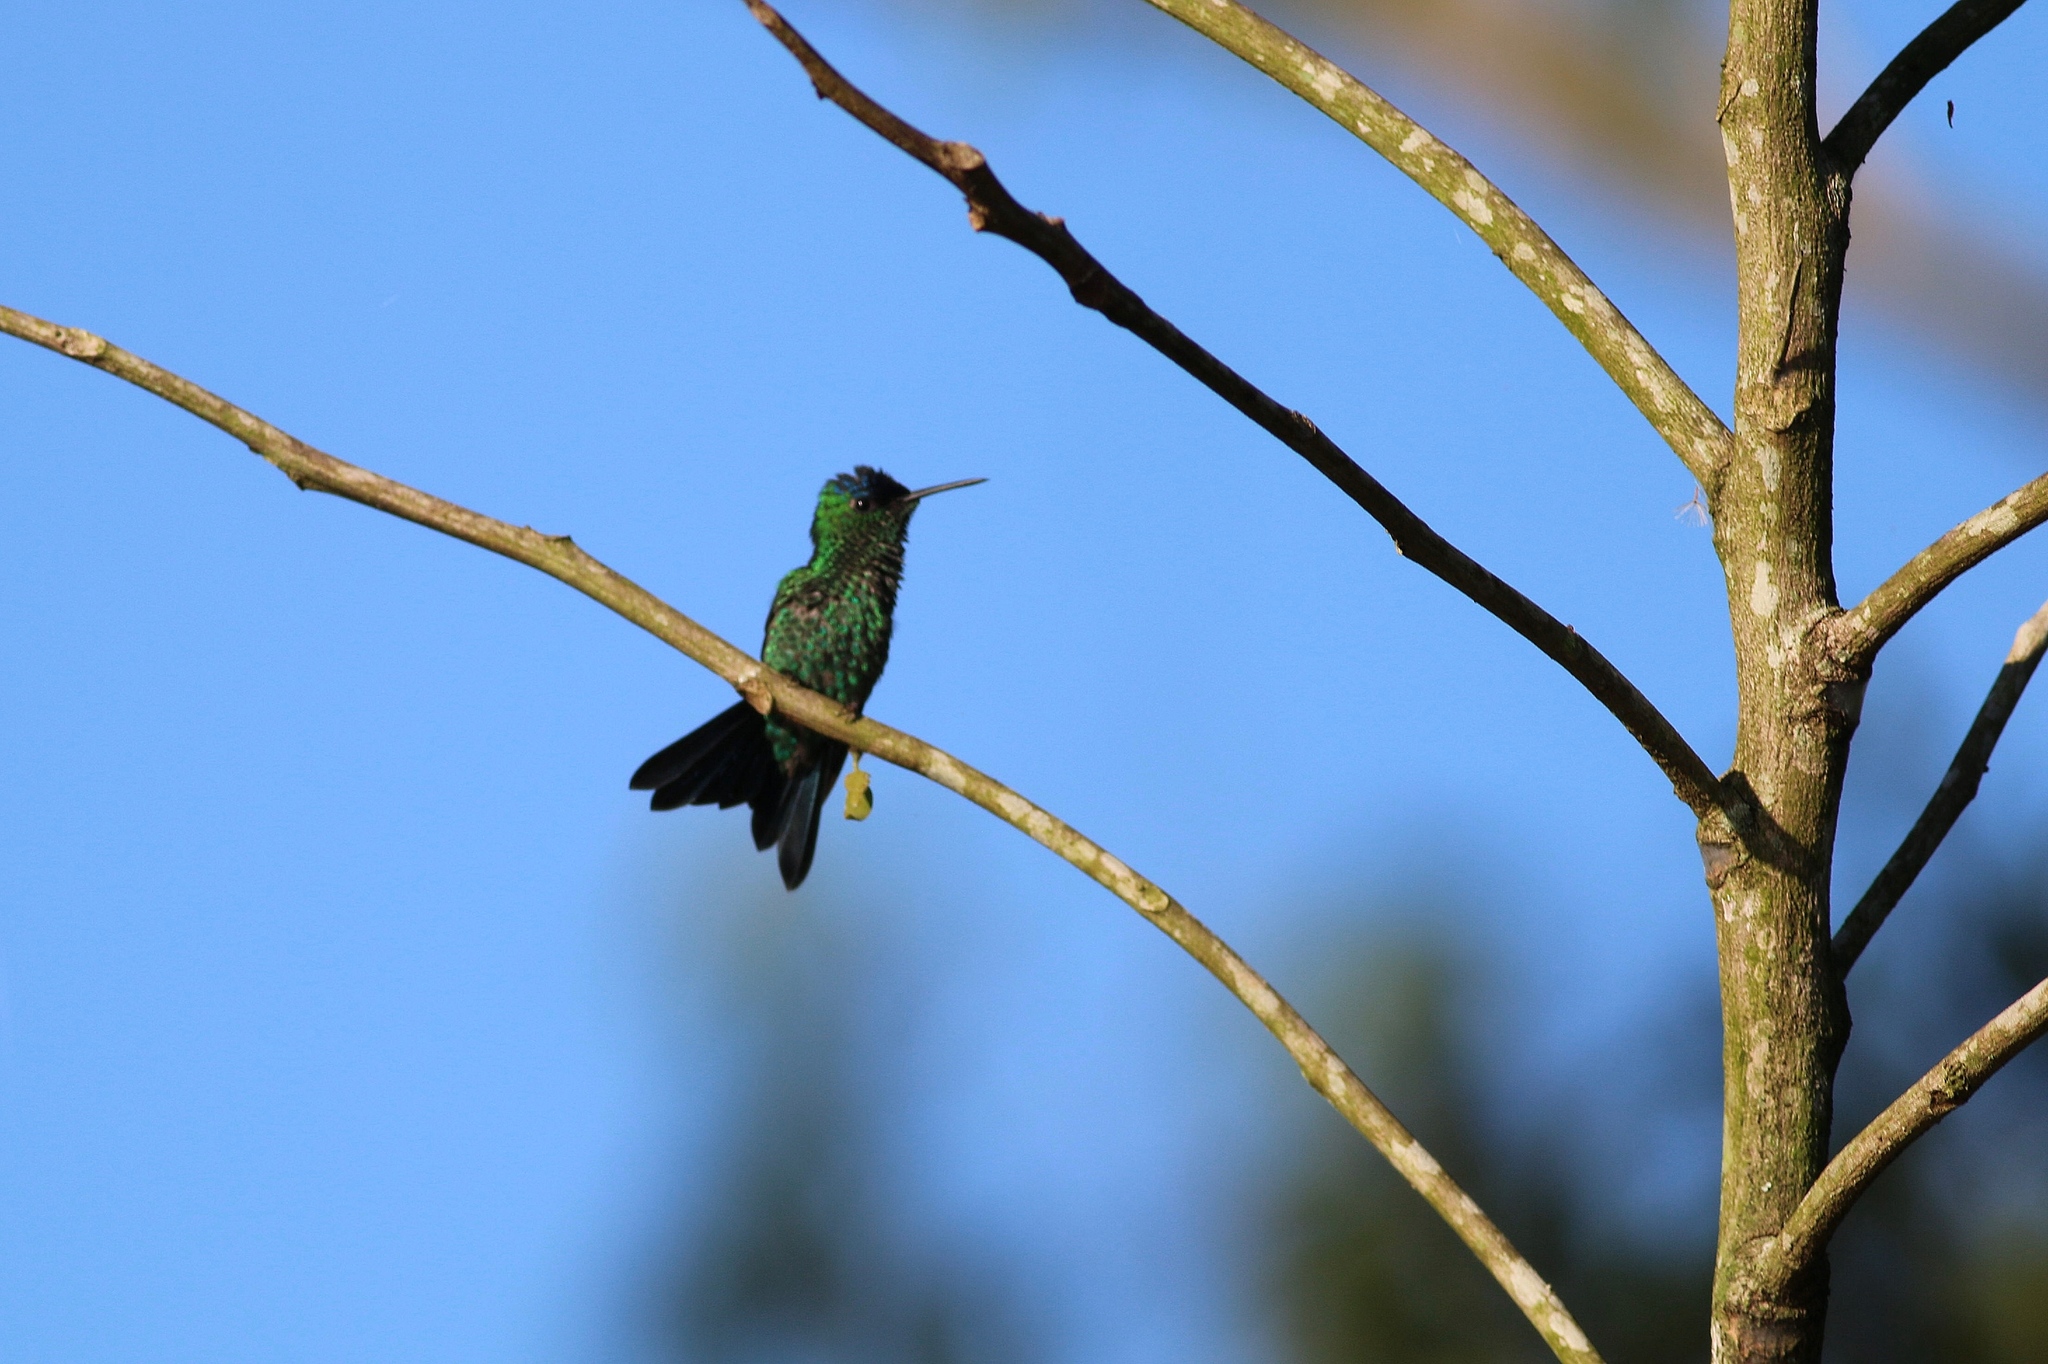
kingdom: Animalia
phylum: Chordata
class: Aves
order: Apodiformes
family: Trochilidae
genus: Thalurania
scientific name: Thalurania glaucopis
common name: Violet-capped woodnymph
